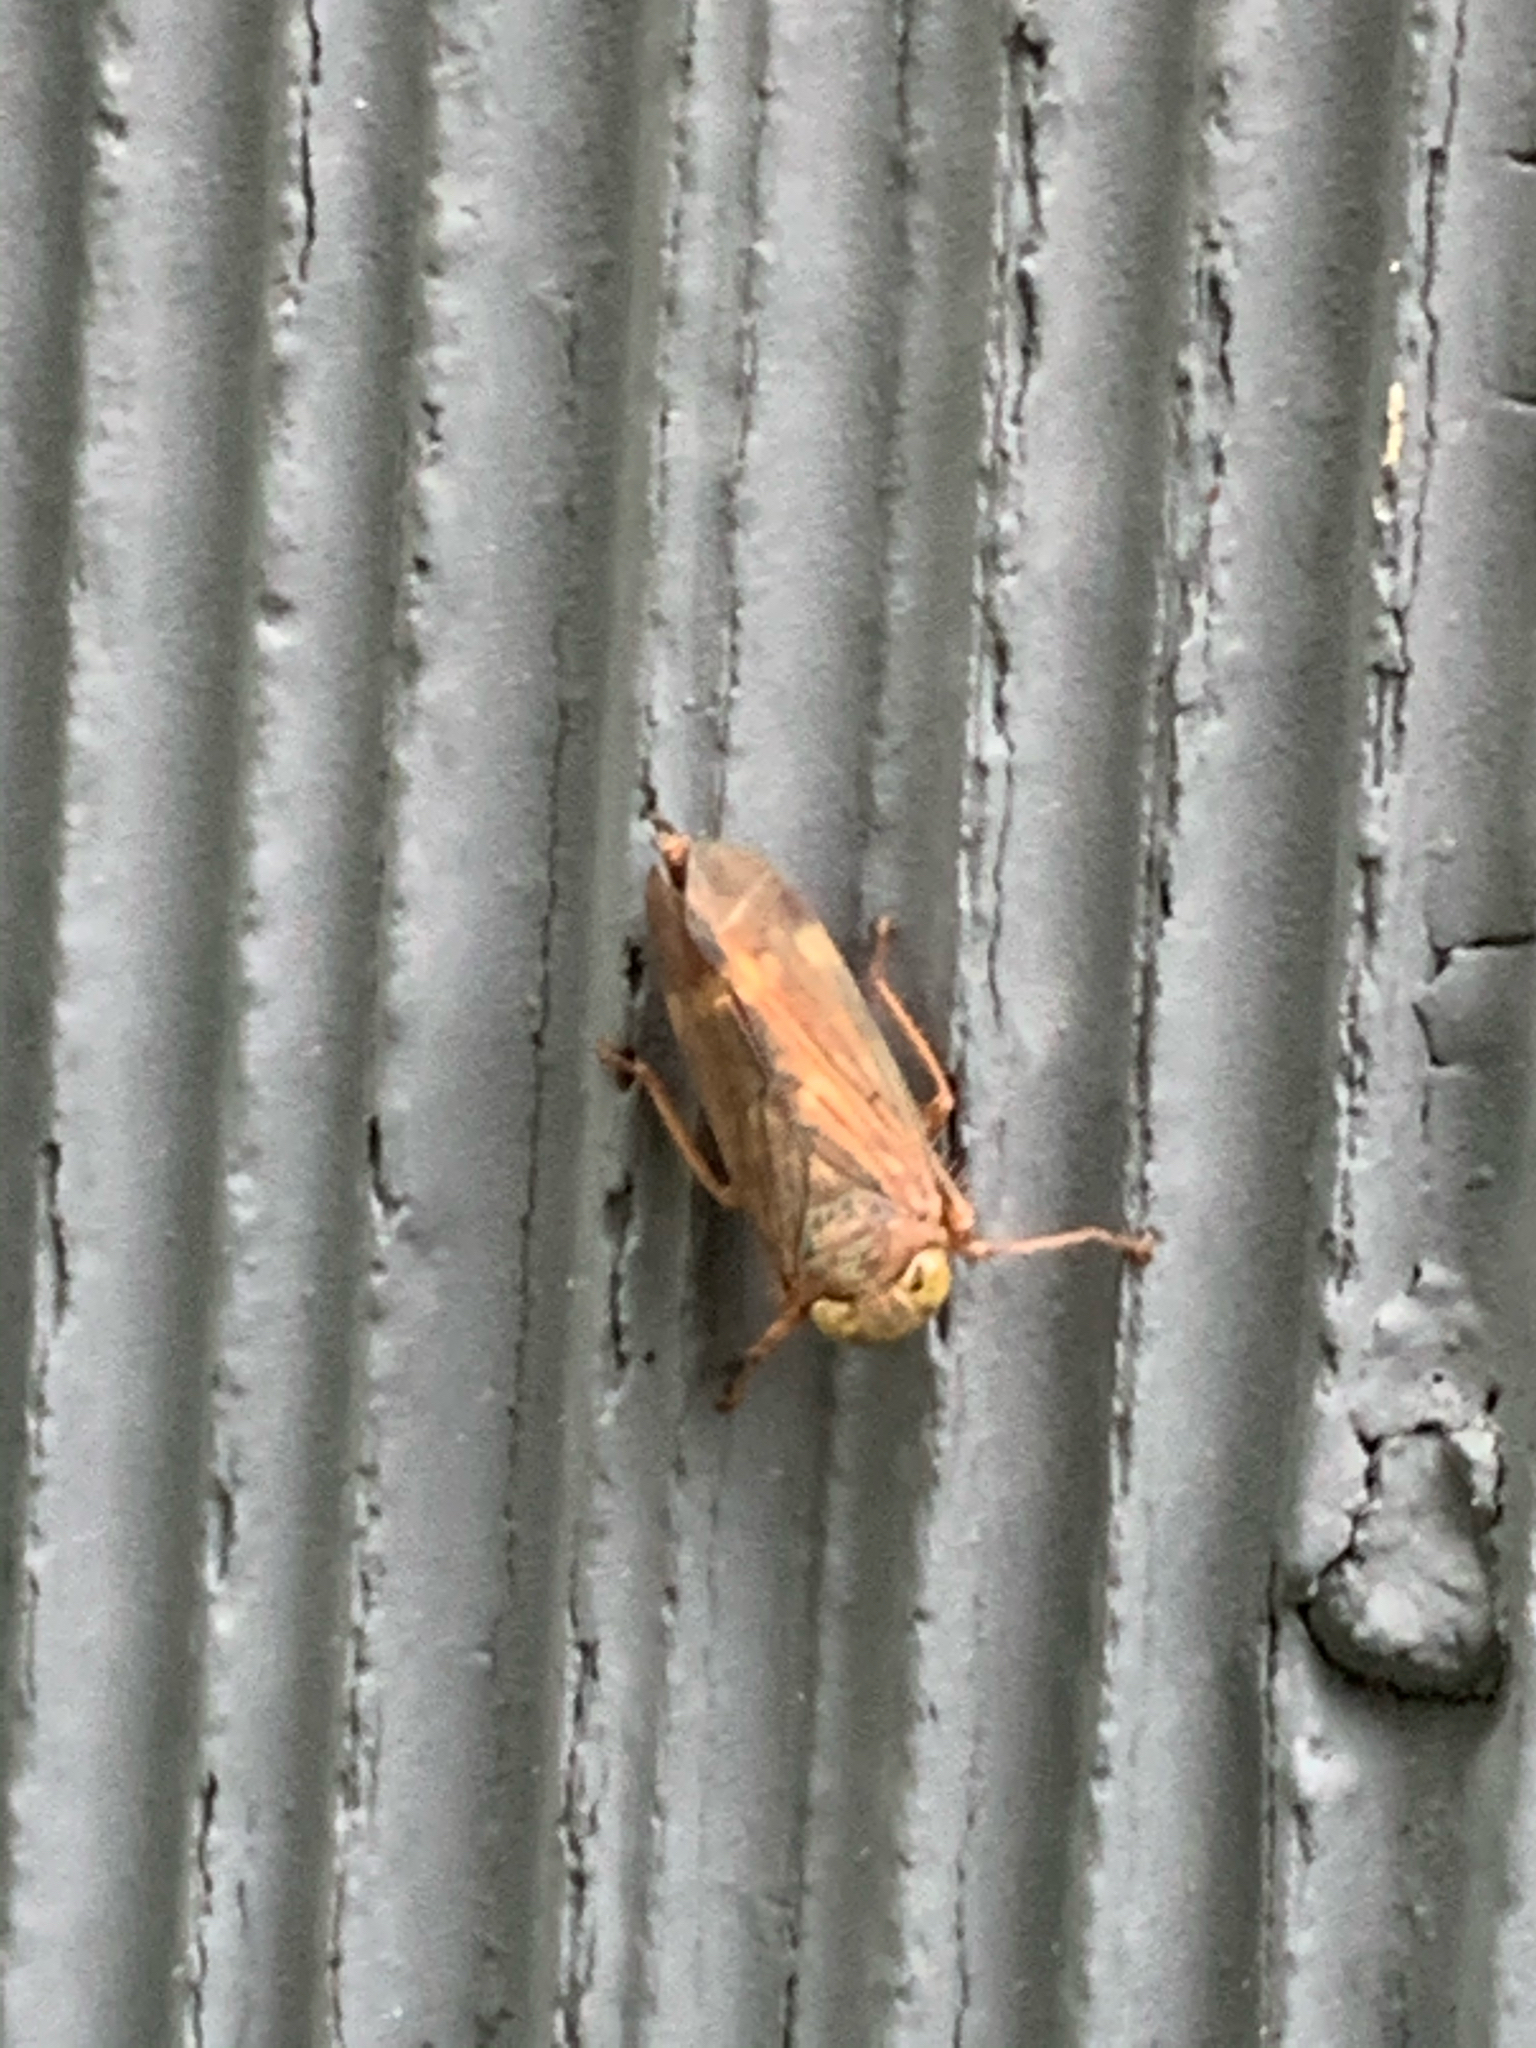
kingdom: Animalia
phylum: Arthropoda
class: Insecta
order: Hemiptera
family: Cicadellidae
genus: Jikradia
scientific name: Jikradia olitoria
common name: Coppery leafhopper
